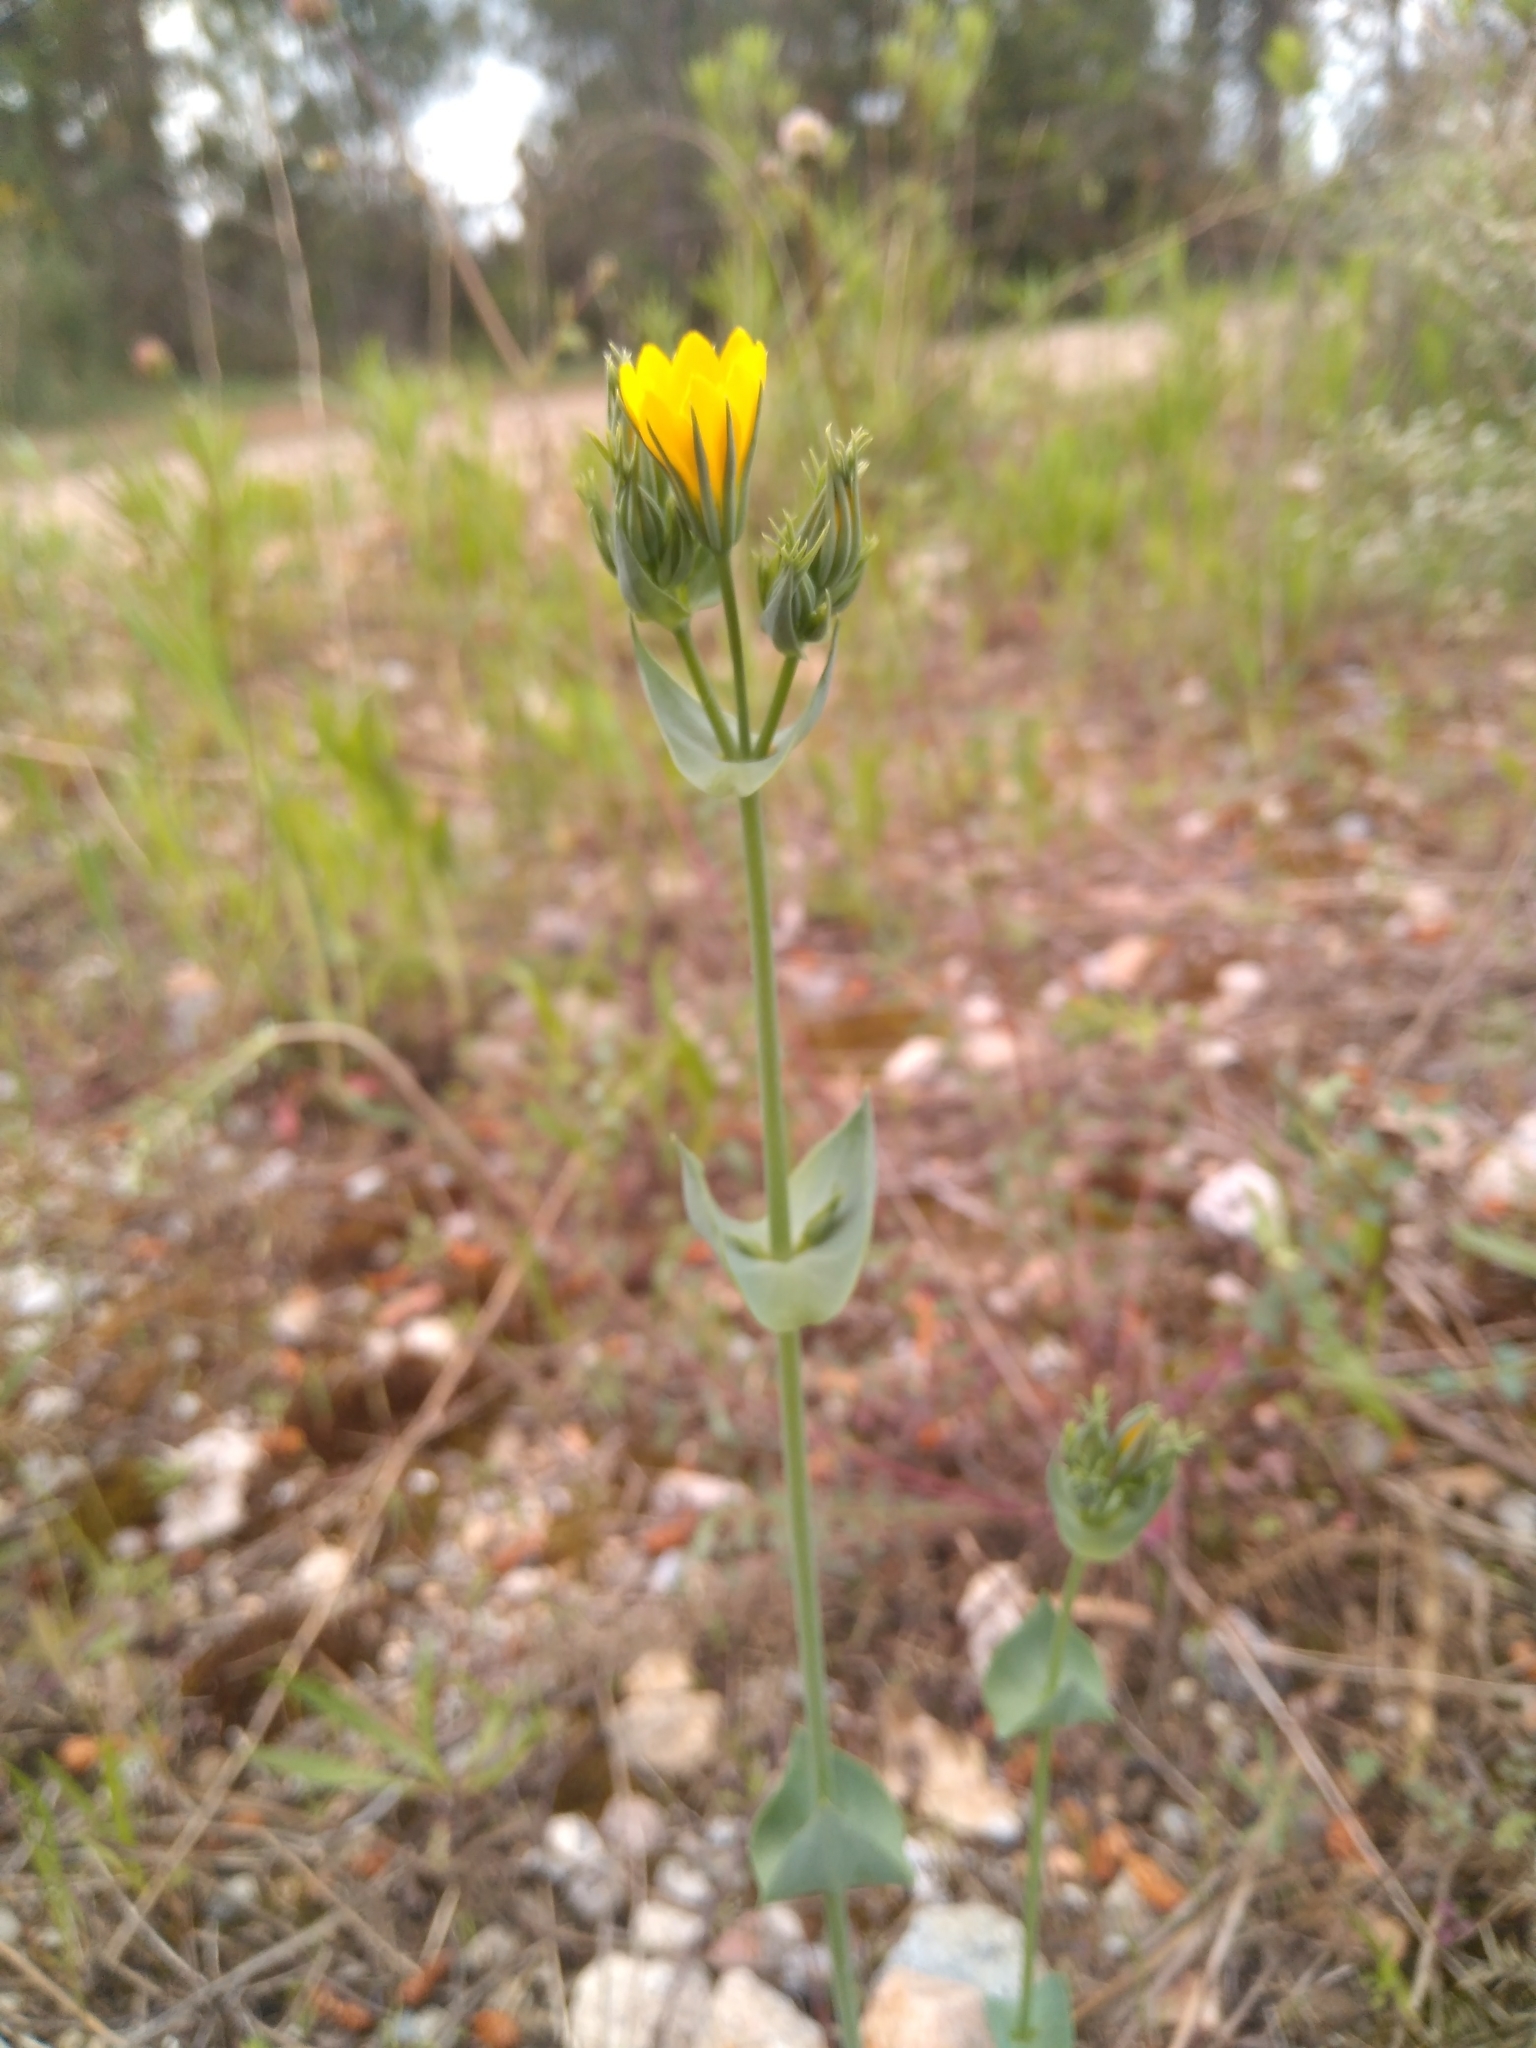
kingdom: Plantae
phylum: Tracheophyta
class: Magnoliopsida
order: Gentianales
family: Gentianaceae
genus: Blackstonia
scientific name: Blackstonia perfoliata
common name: Yellow-wort
